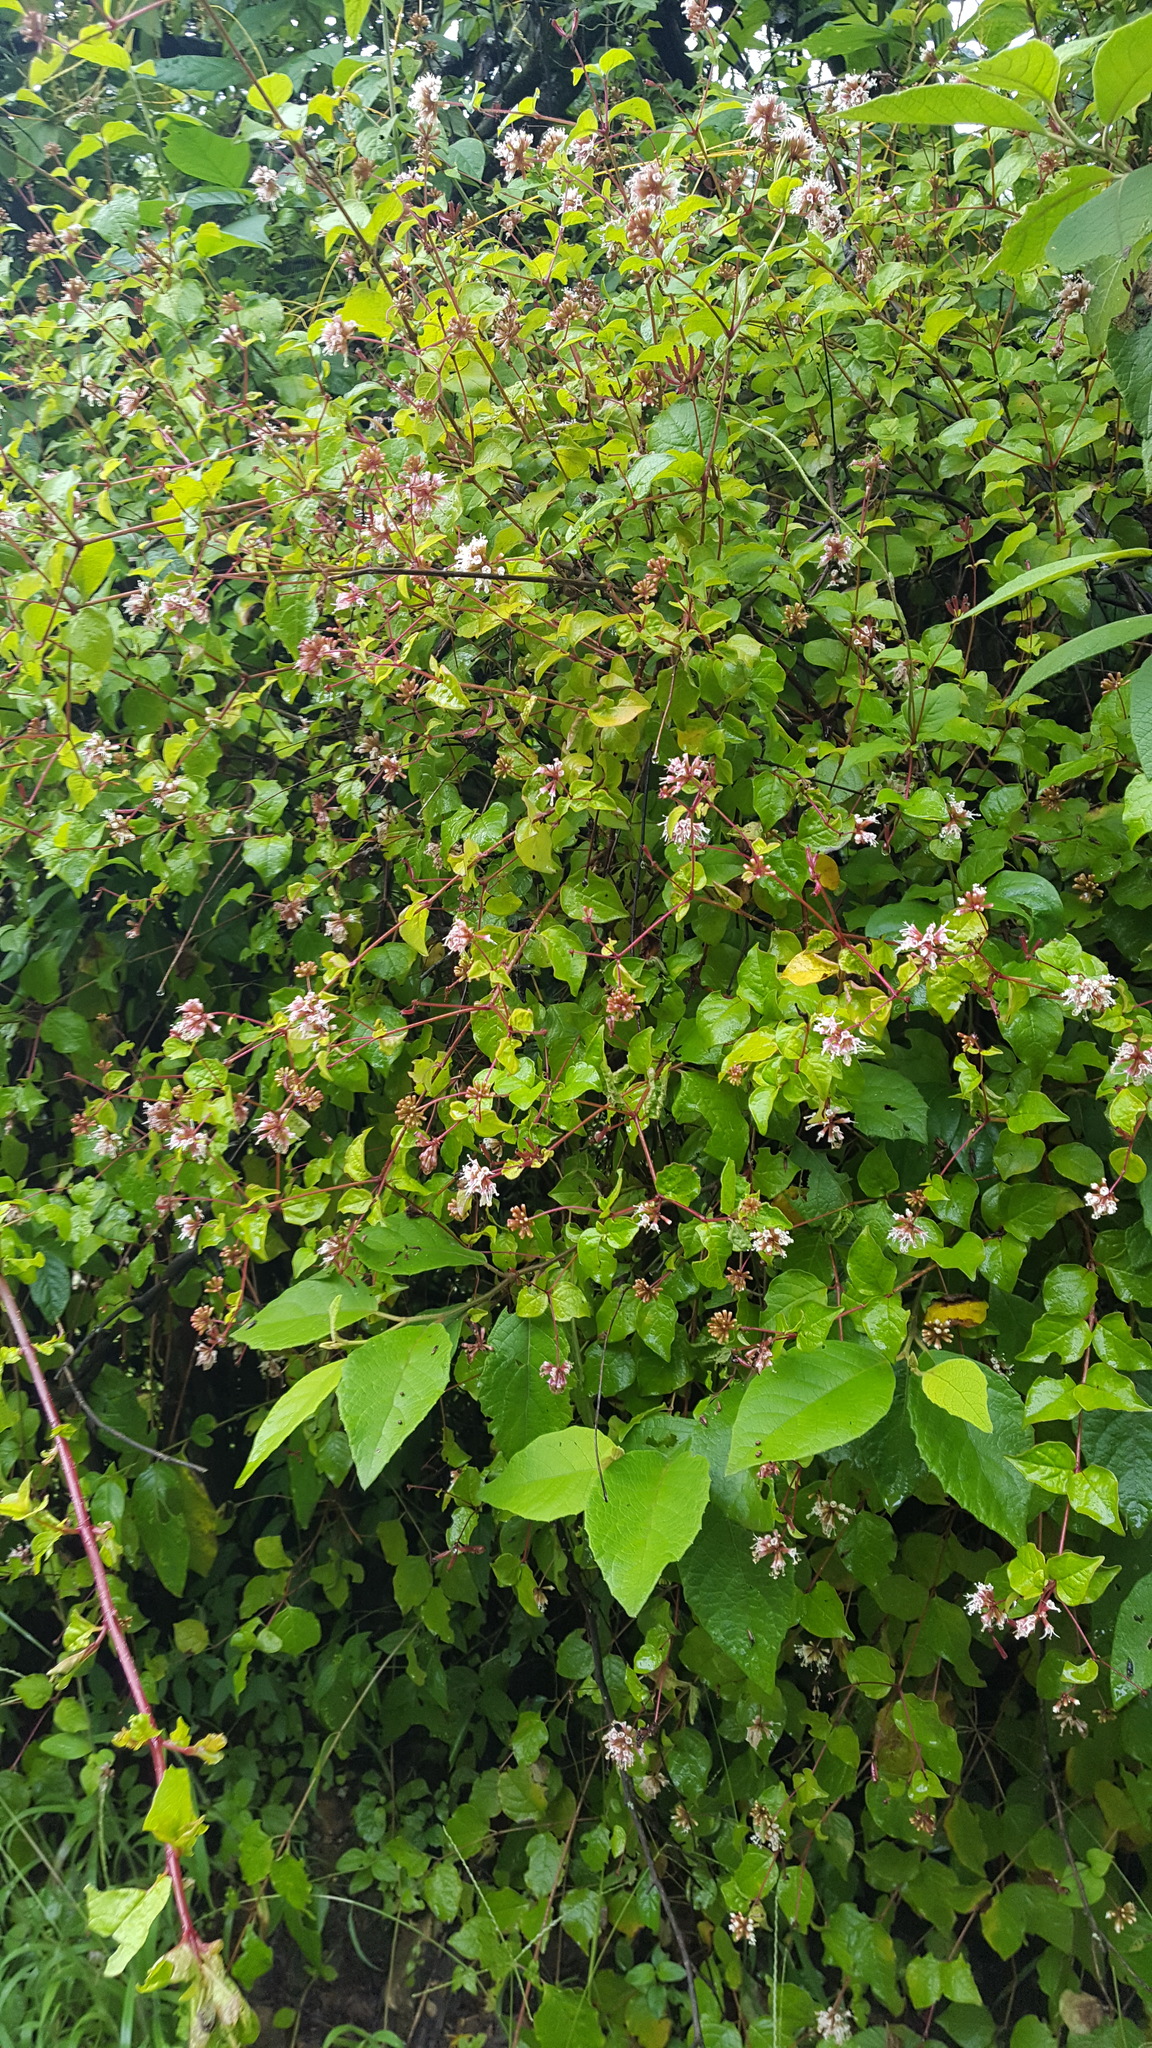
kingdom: Plantae
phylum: Tracheophyta
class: Magnoliopsida
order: Caryophyllales
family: Nyctaginaceae
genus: Pisoniella
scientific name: Pisoniella arborescens
